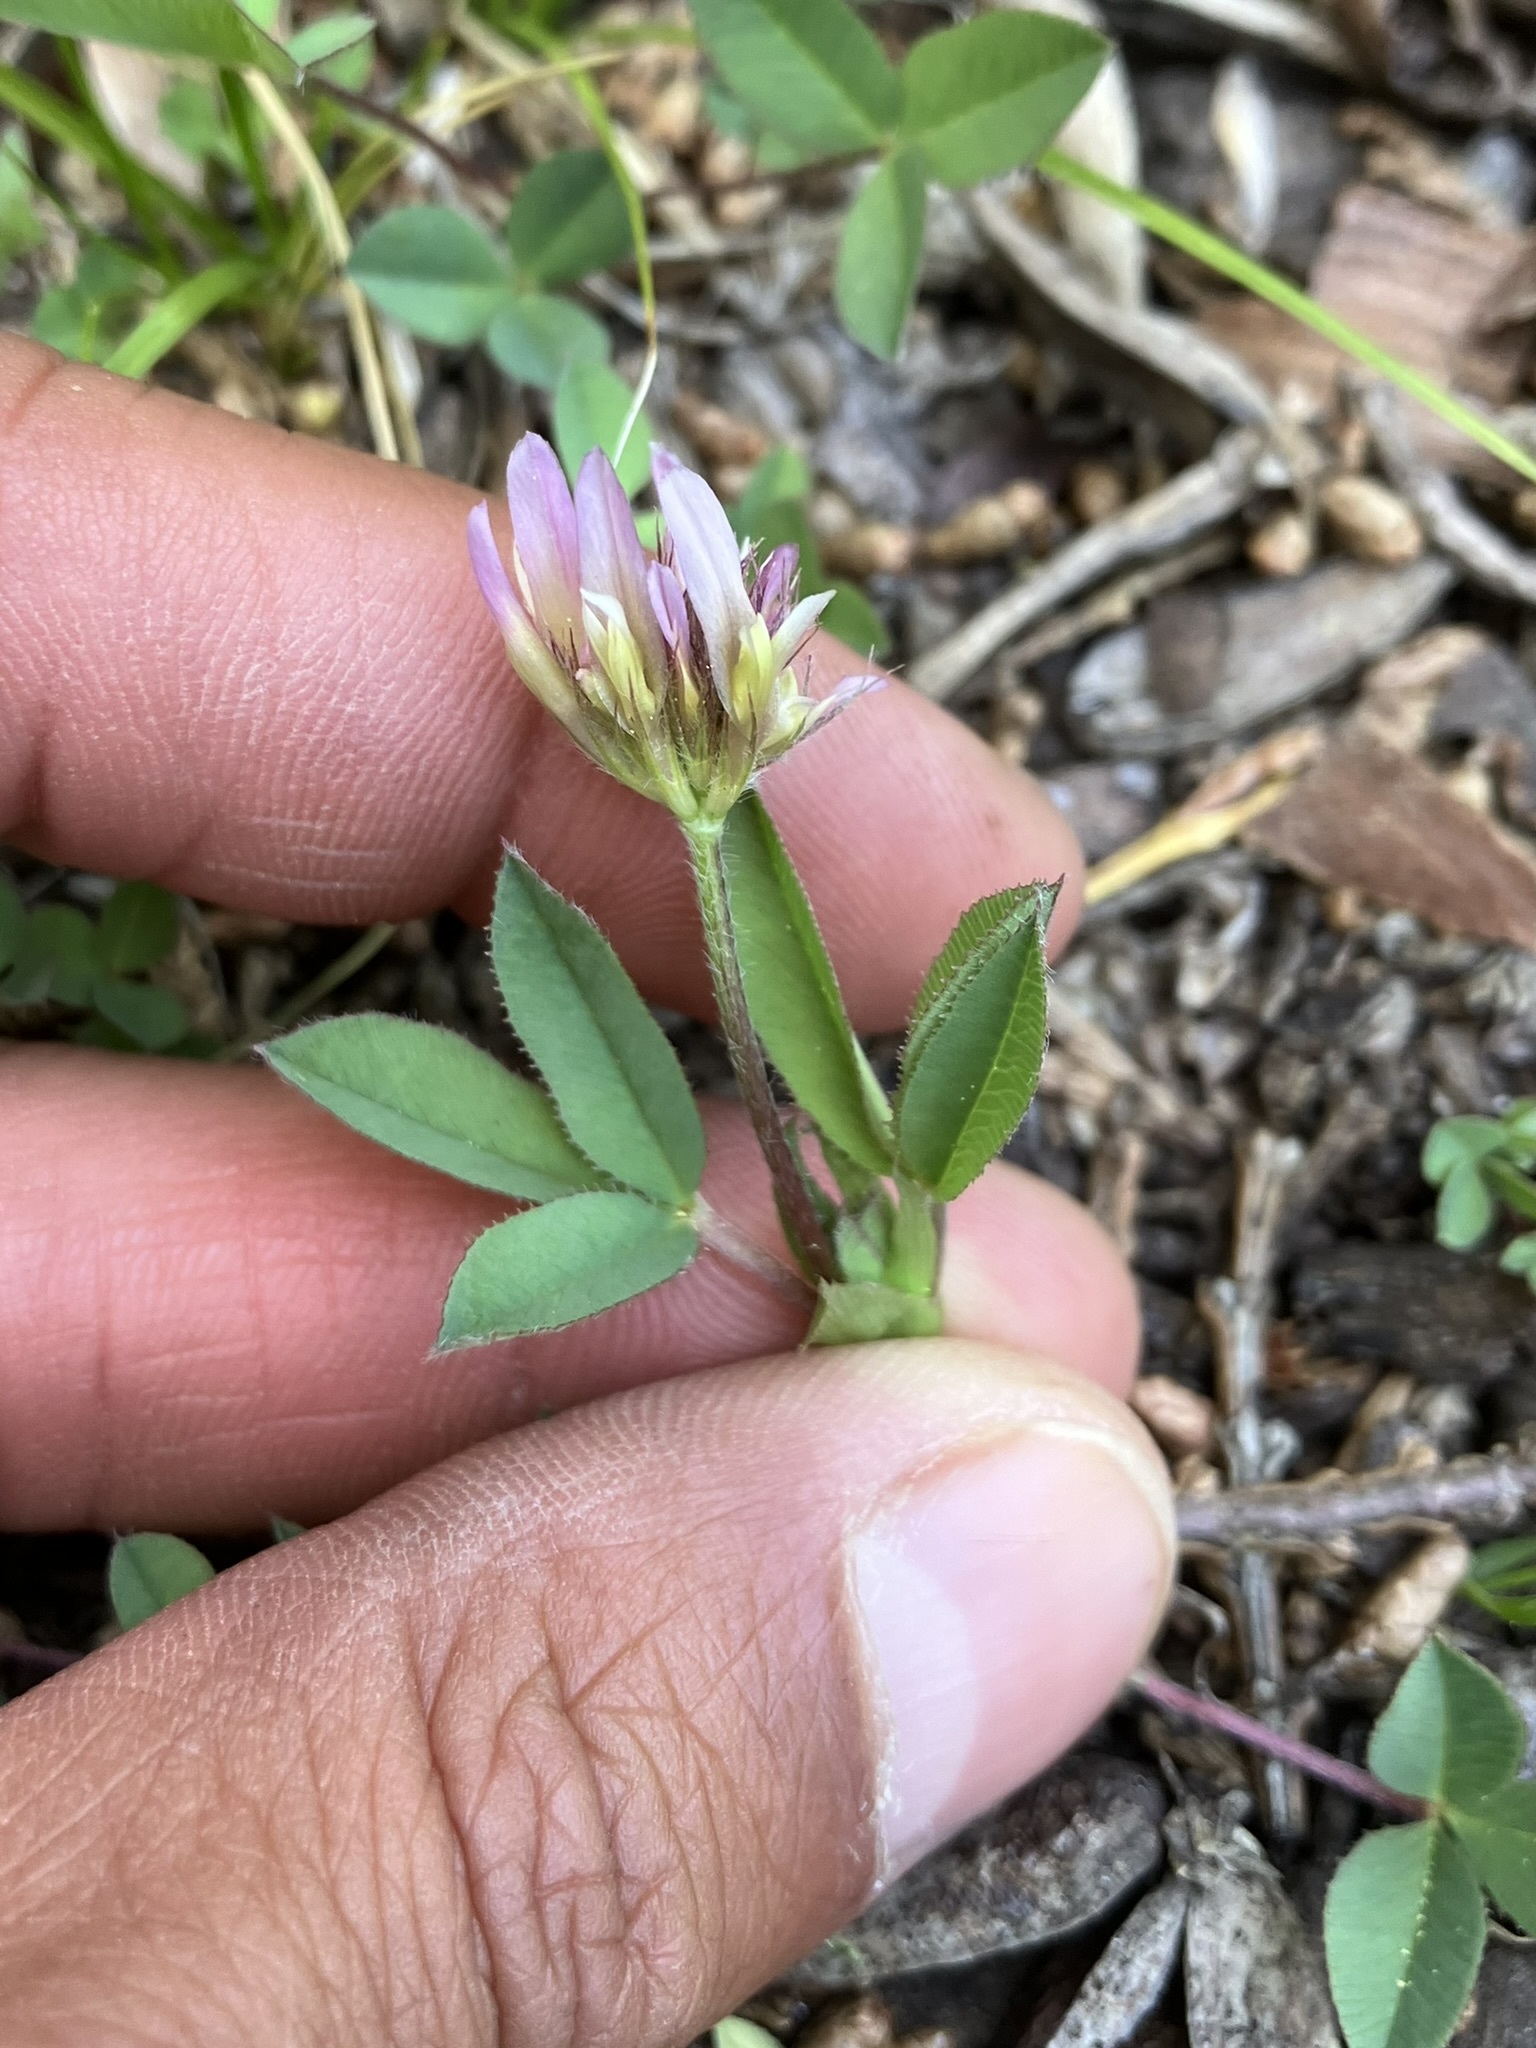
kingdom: Plantae
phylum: Tracheophyta
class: Magnoliopsida
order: Fabales
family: Fabaceae
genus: Trifolium
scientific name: Trifolium longipes
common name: Long-stalk clover
